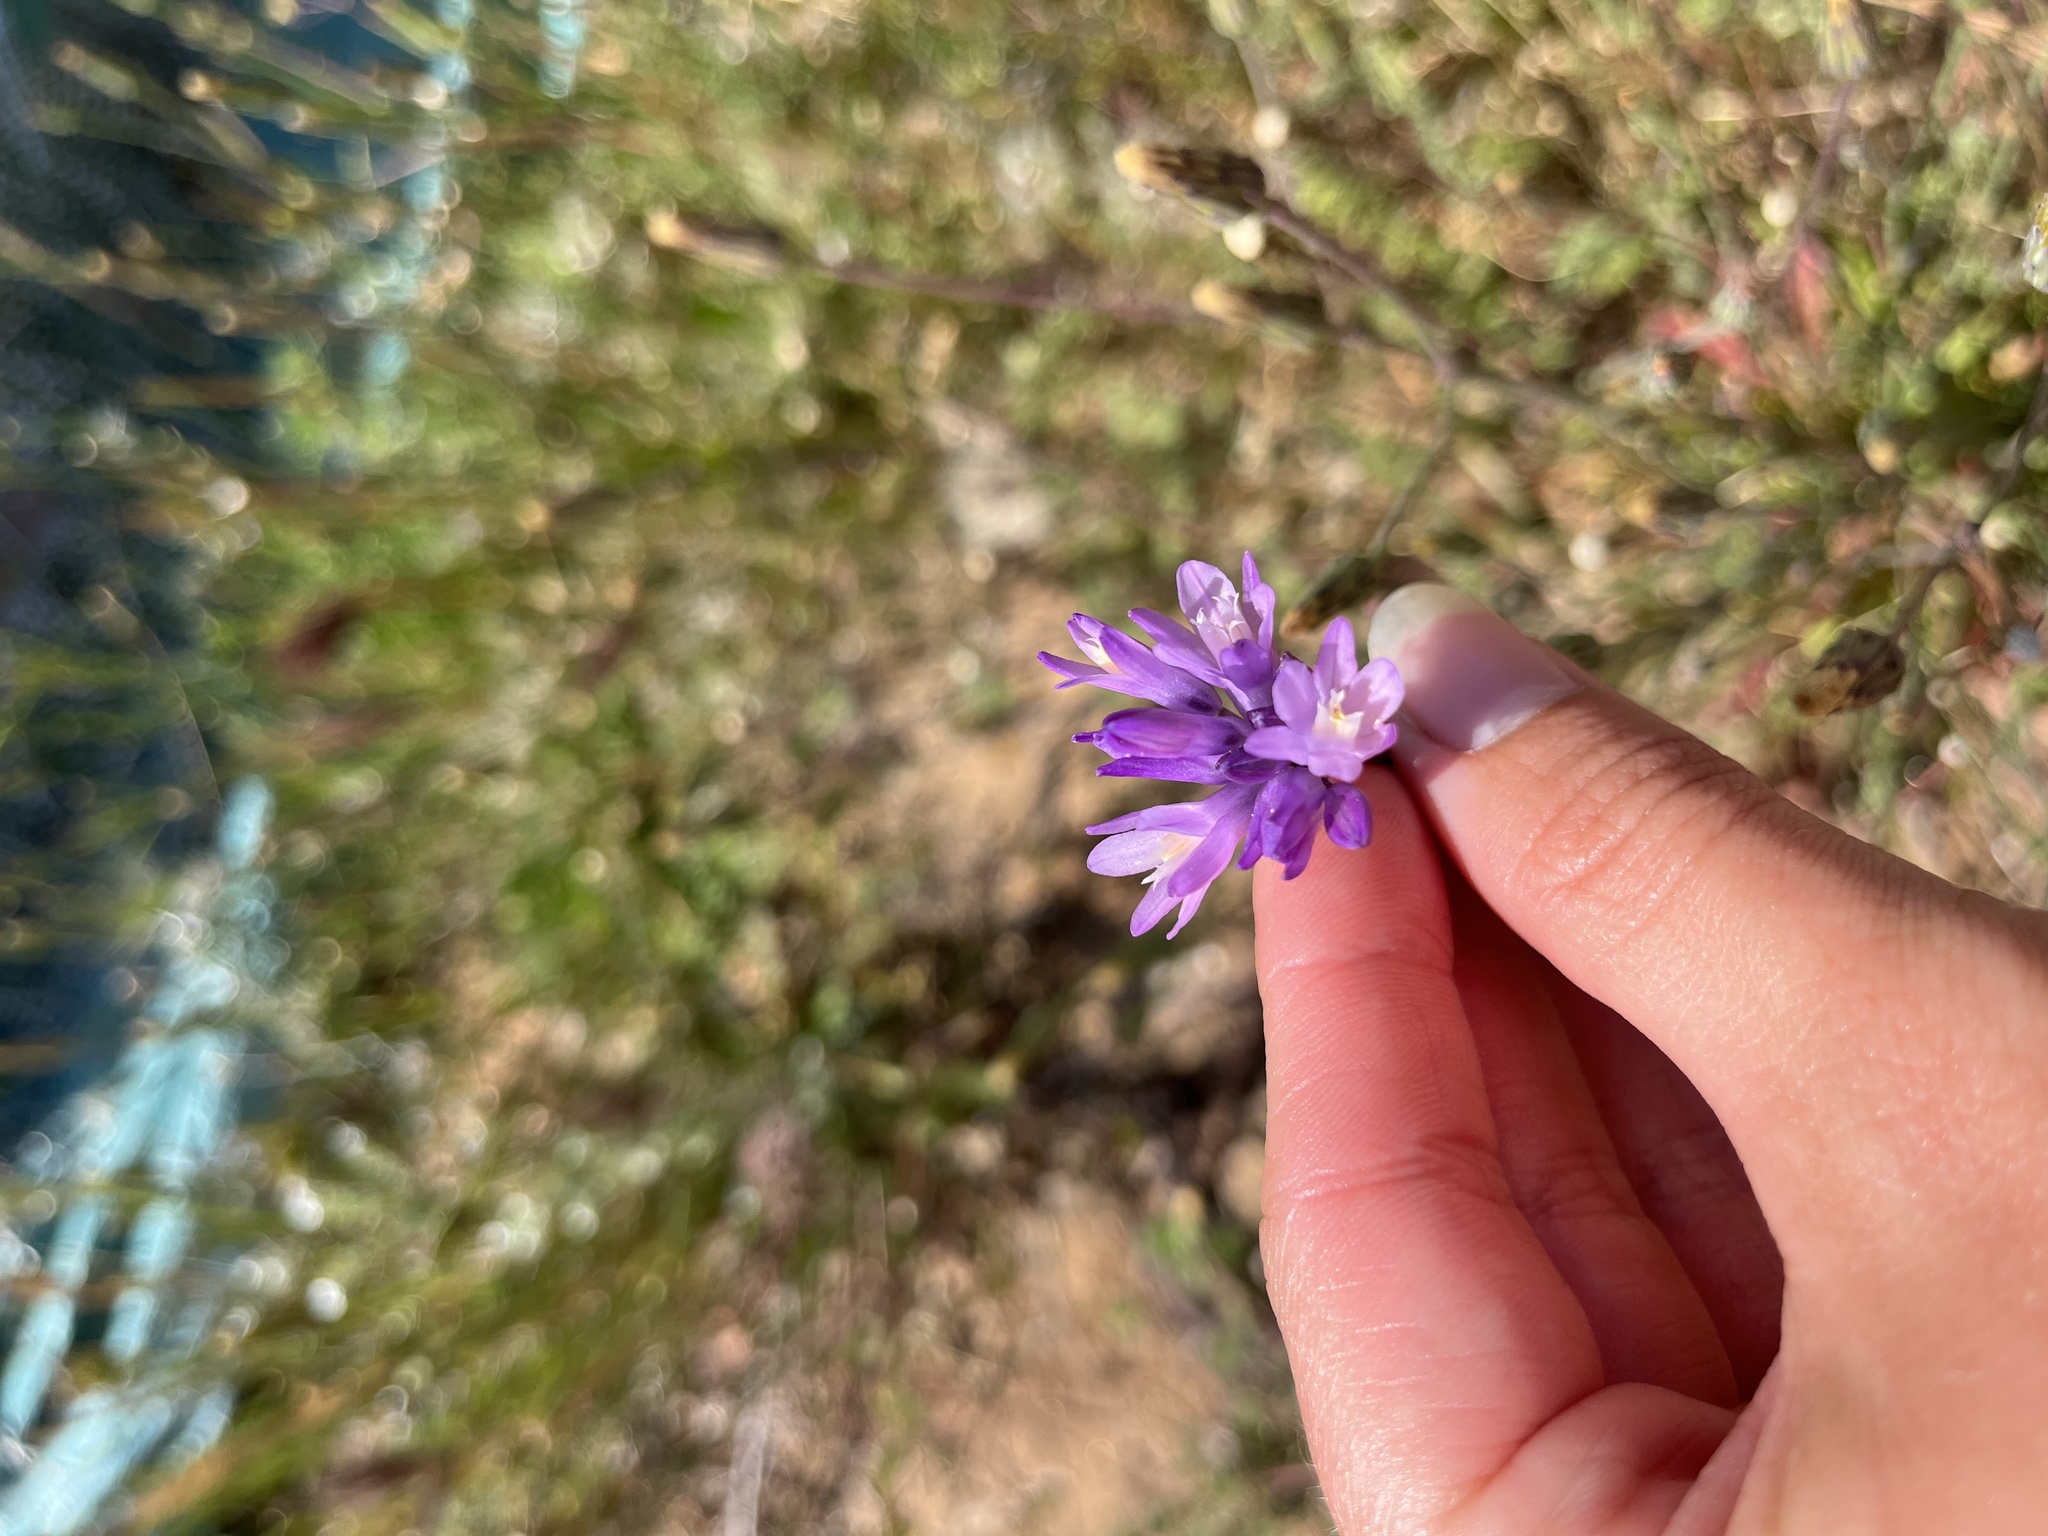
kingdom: Plantae
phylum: Tracheophyta
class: Liliopsida
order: Asparagales
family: Asparagaceae
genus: Dipterostemon
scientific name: Dipterostemon capitatus
